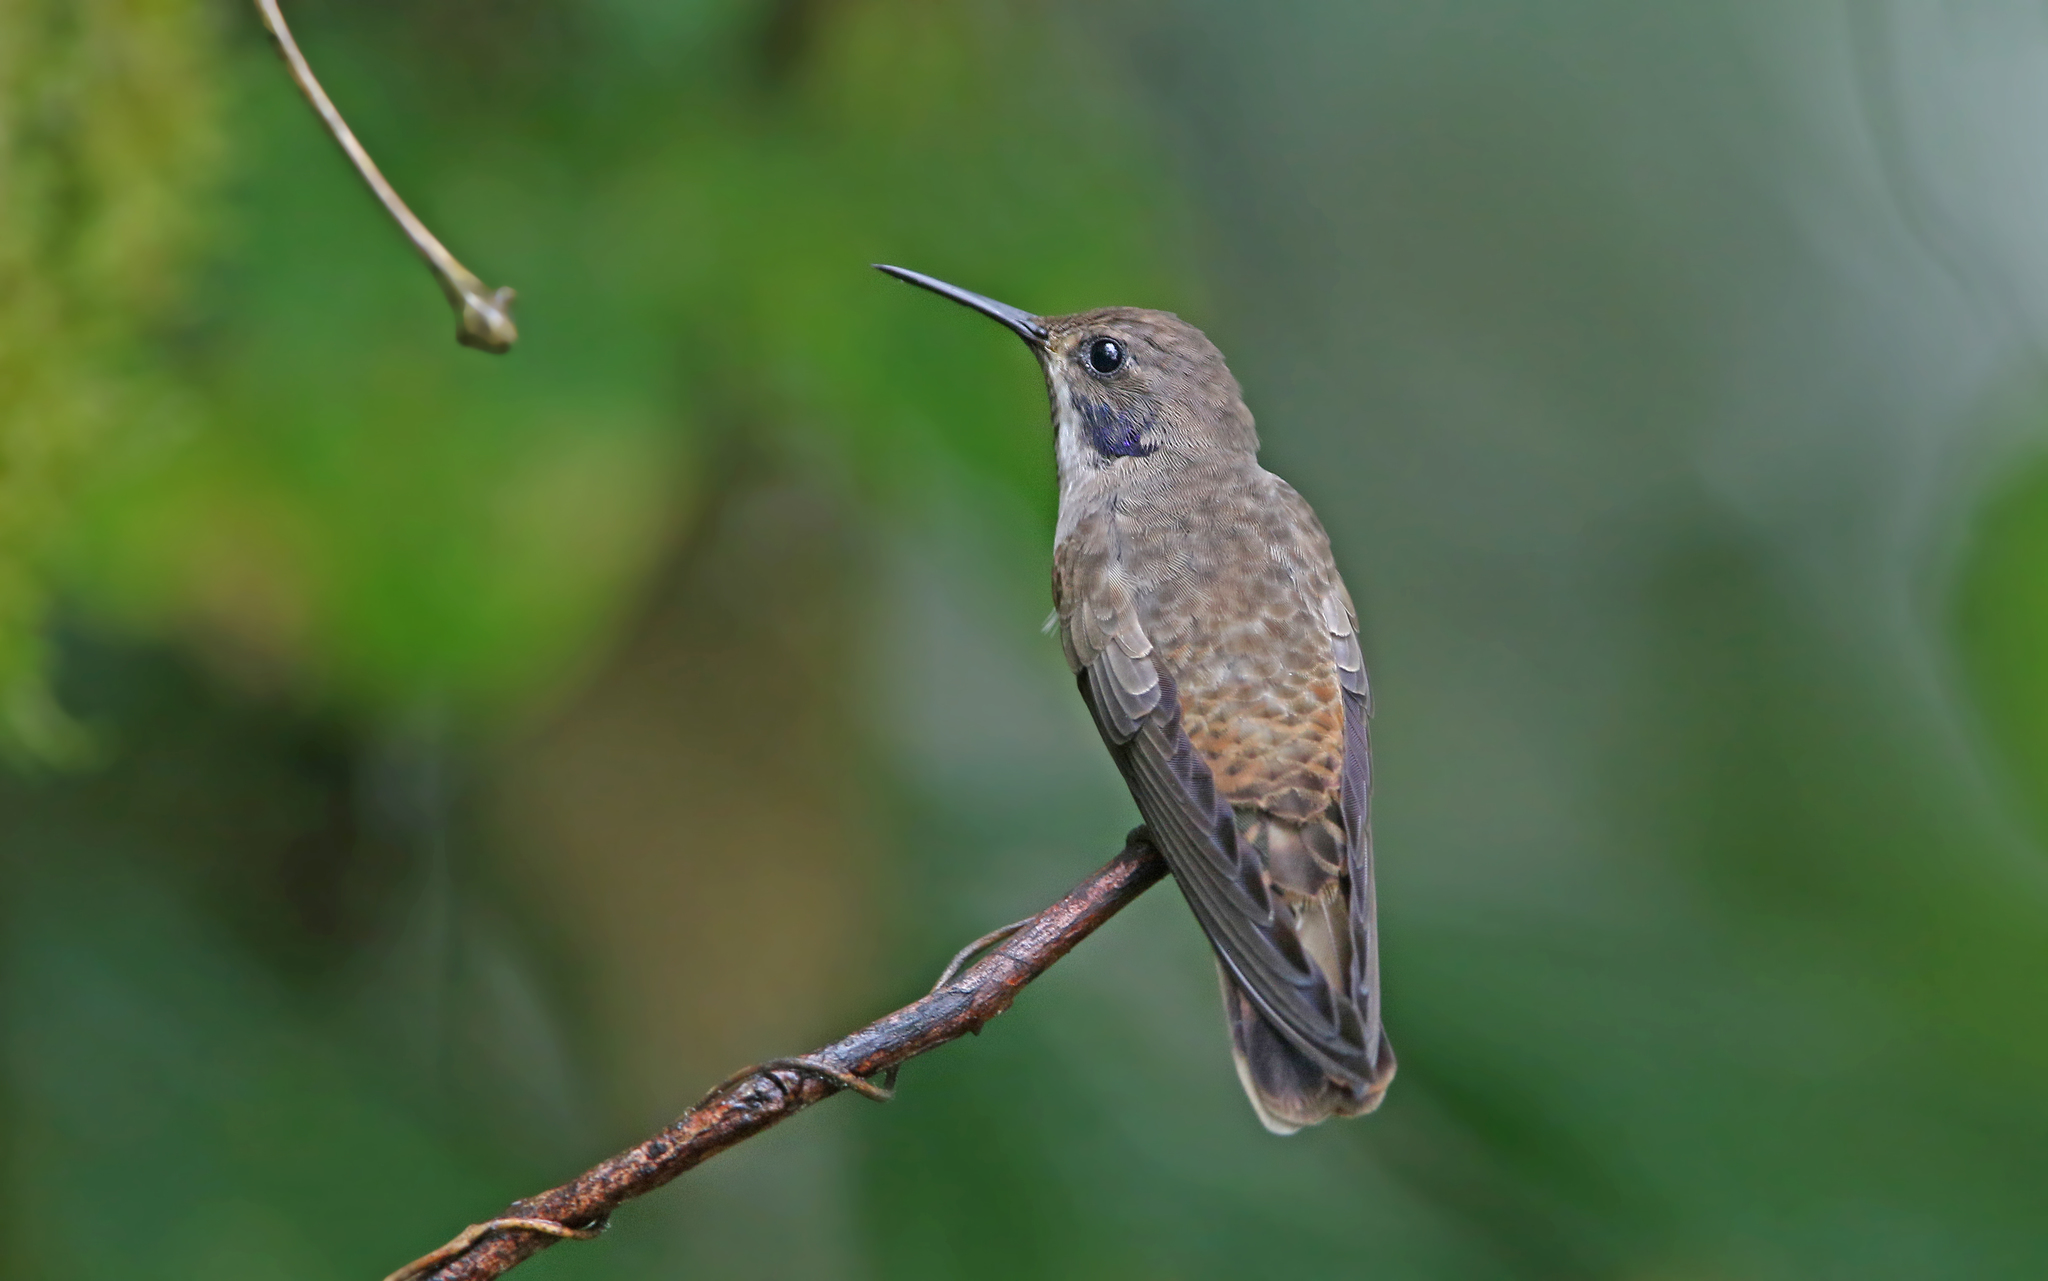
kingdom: Animalia
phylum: Chordata
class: Aves
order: Apodiformes
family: Trochilidae
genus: Colibri
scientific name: Colibri delphinae
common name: Brown violetear
